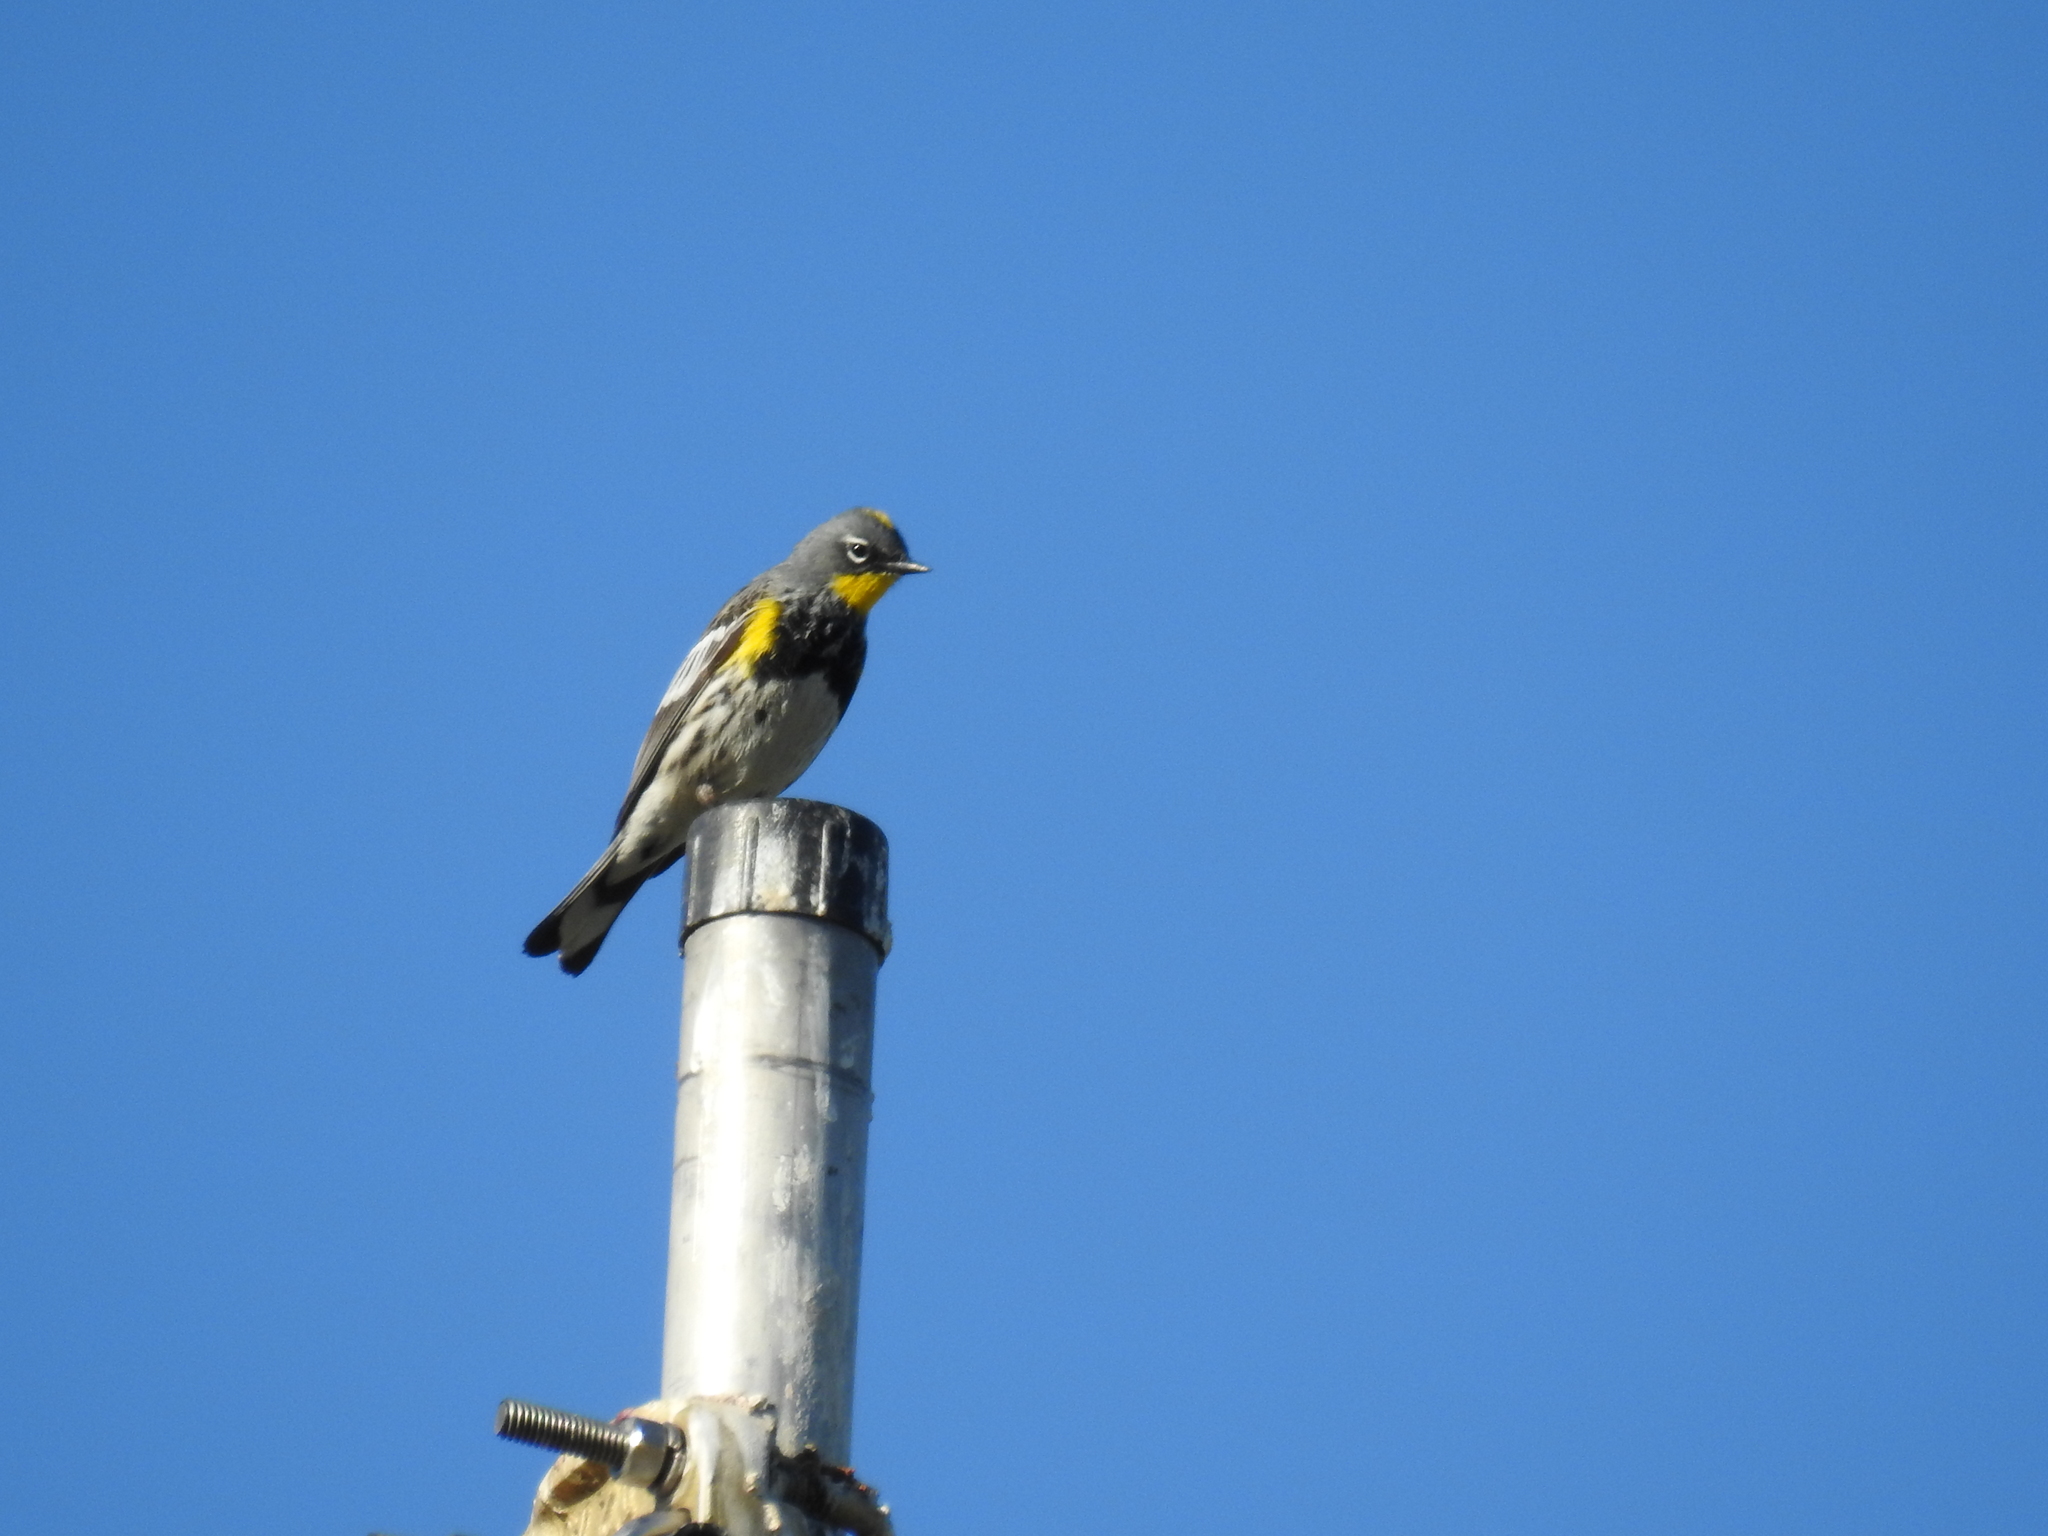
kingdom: Animalia
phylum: Chordata
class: Aves
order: Passeriformes
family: Parulidae
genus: Setophaga
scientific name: Setophaga coronata
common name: Myrtle warbler
